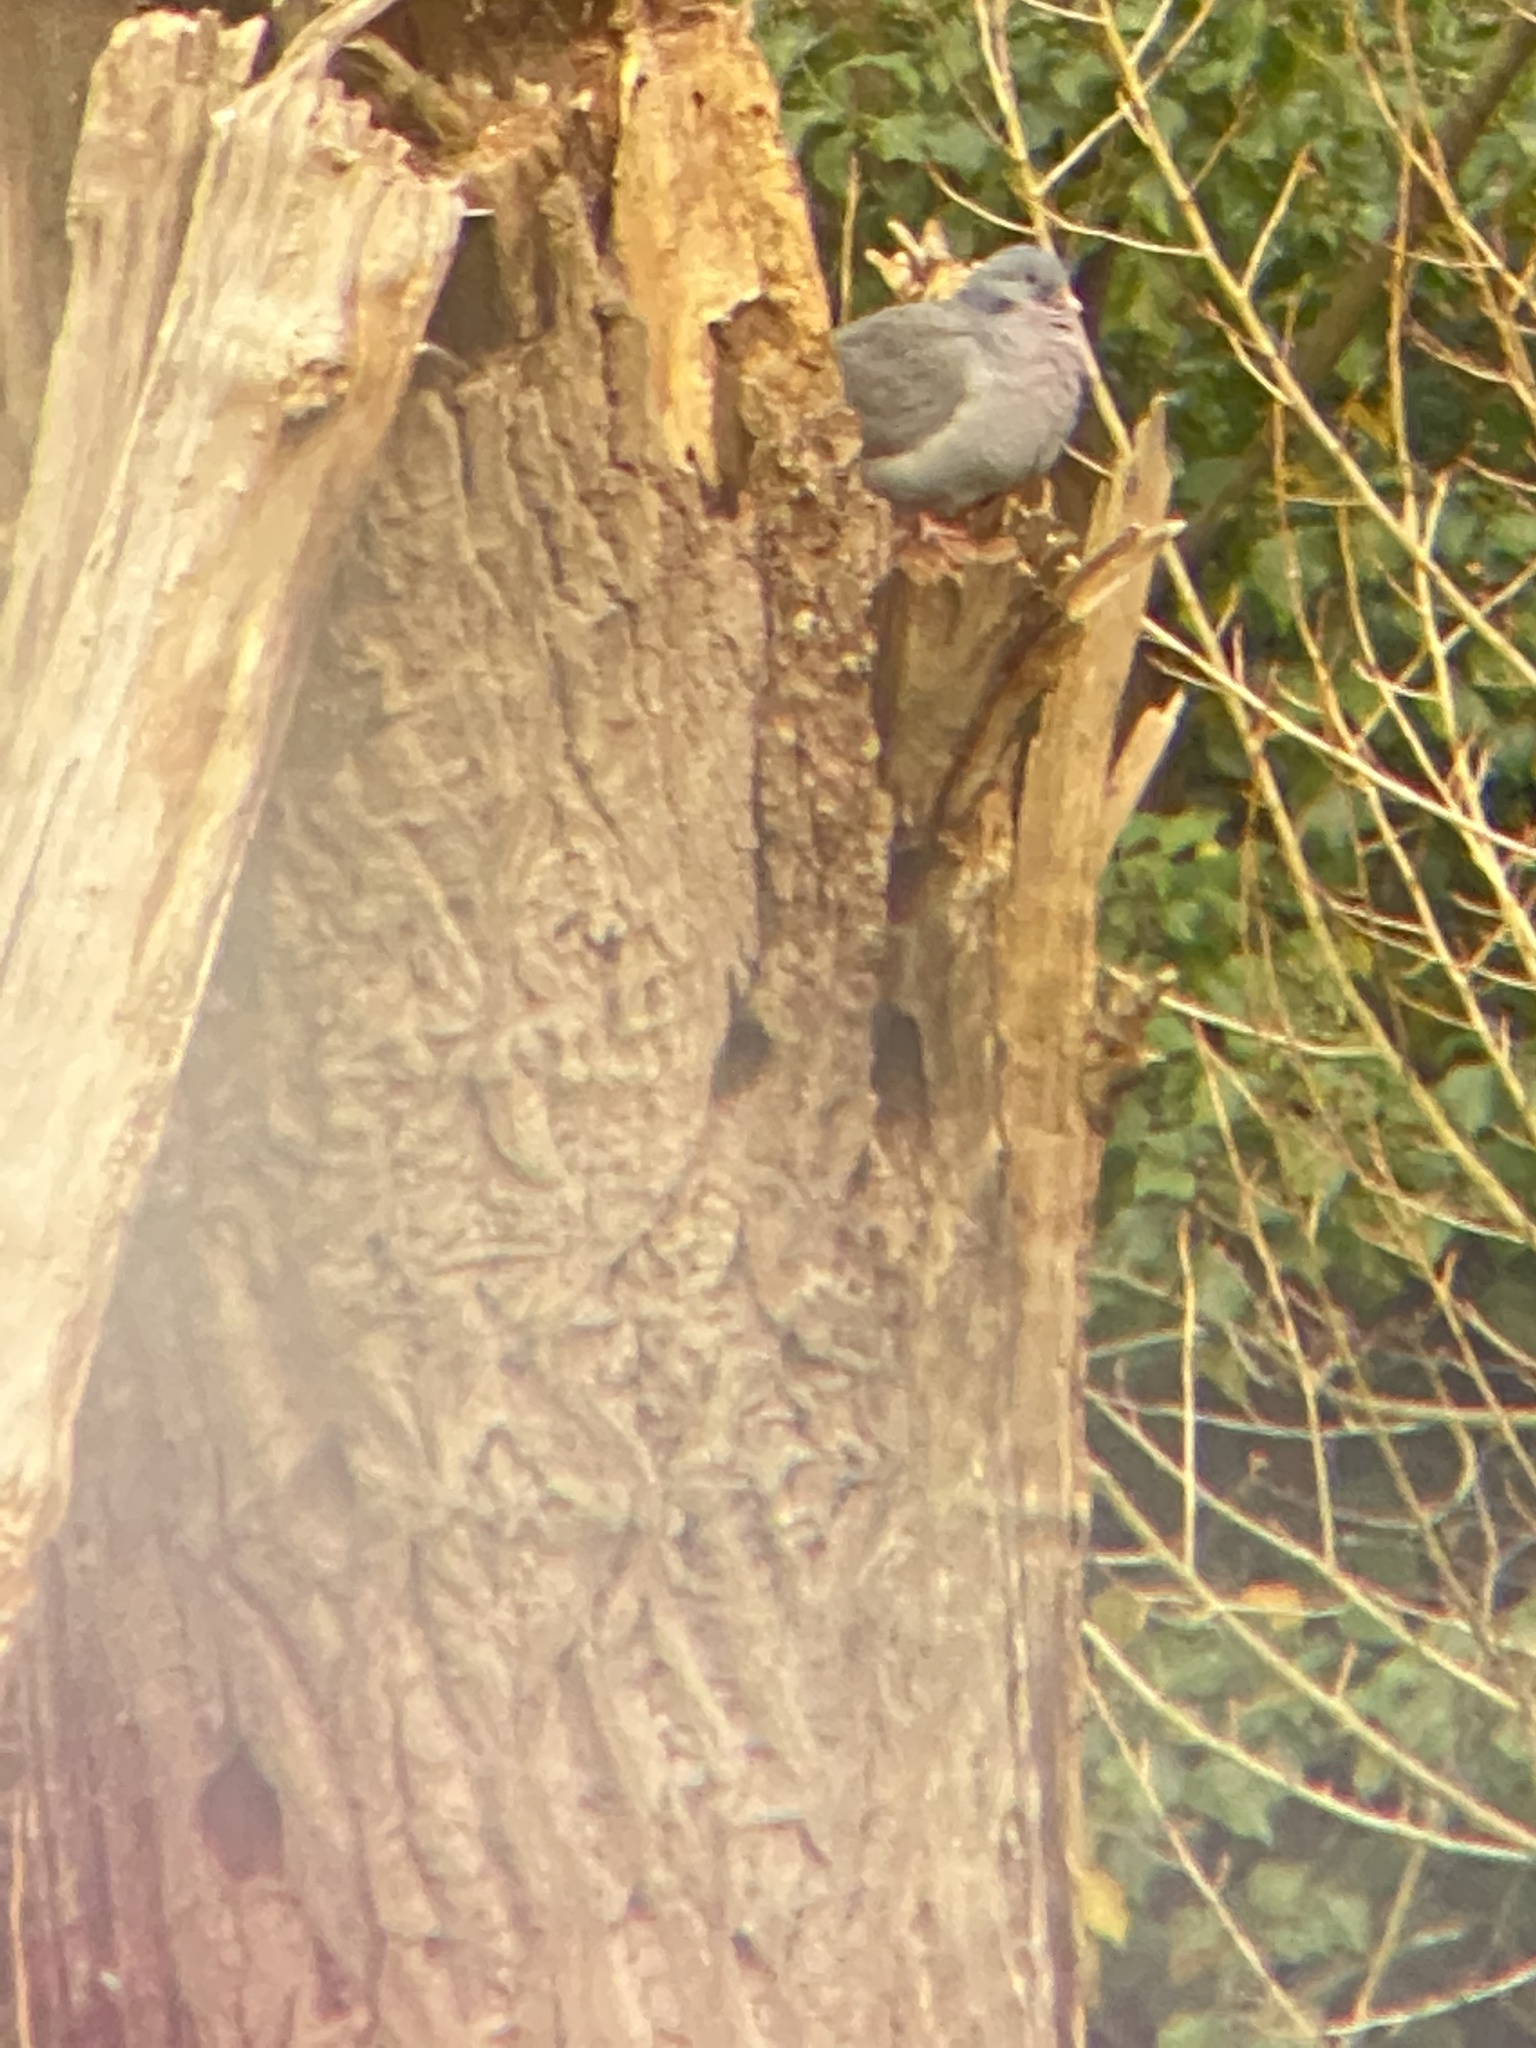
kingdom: Animalia
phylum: Chordata
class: Aves
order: Columbiformes
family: Columbidae
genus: Columba
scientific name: Columba oenas
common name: Stock dove
